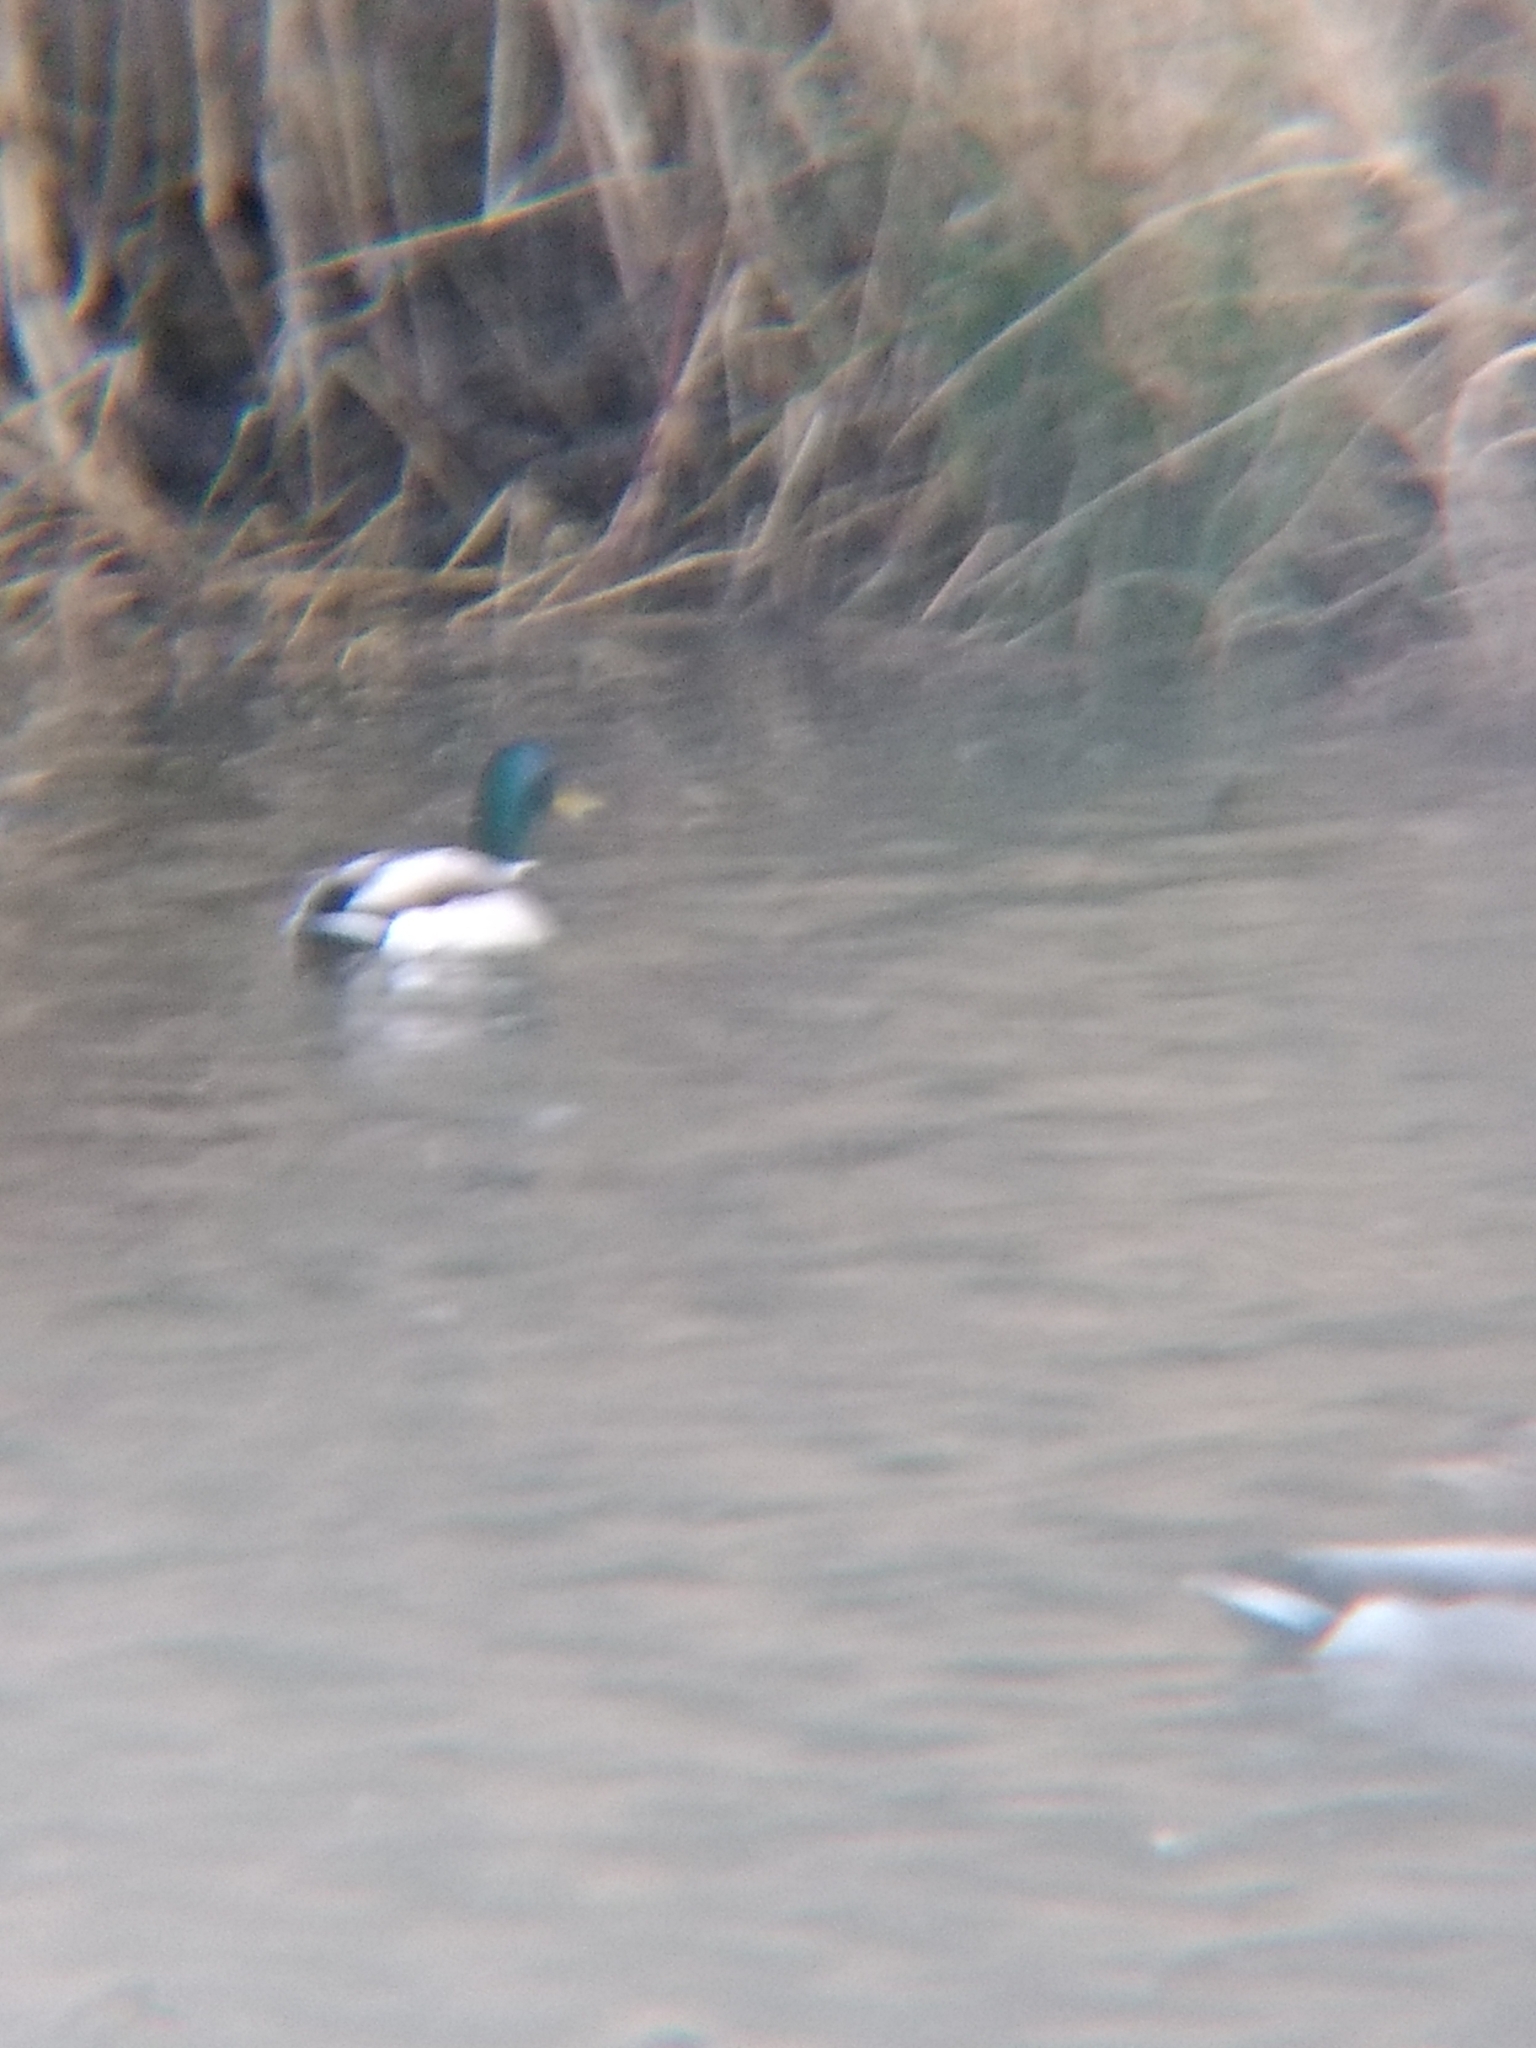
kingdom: Animalia
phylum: Chordata
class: Aves
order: Anseriformes
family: Anatidae
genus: Anas
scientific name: Anas platyrhynchos
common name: Mallard
